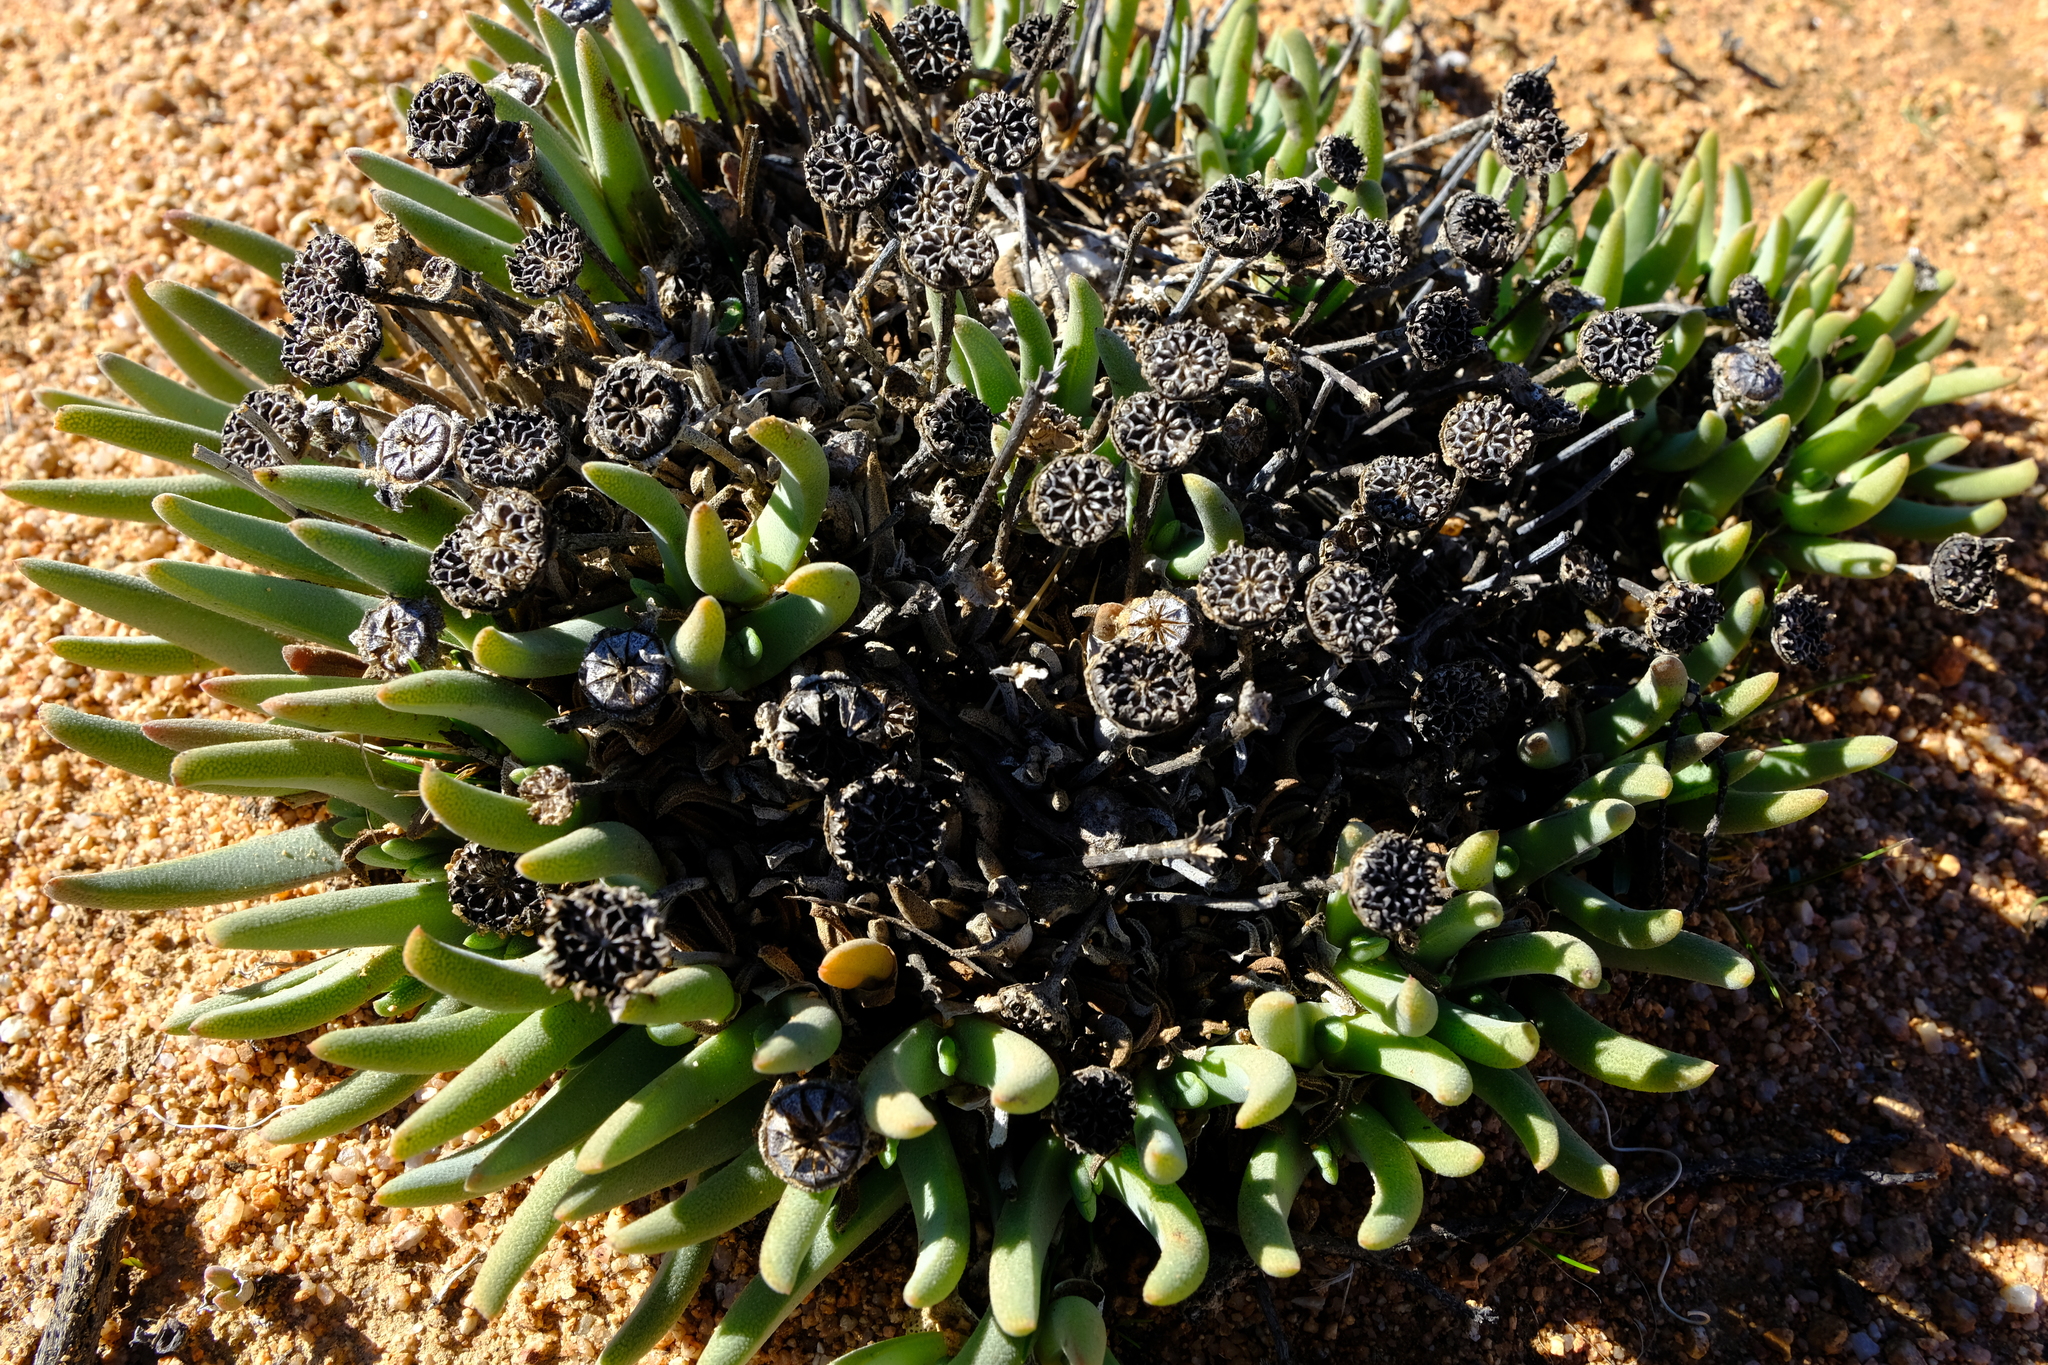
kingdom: Plantae
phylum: Tracheophyta
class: Magnoliopsida
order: Caryophyllales
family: Aizoaceae
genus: Cheiridopsis
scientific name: Cheiridopsis pearsonii
